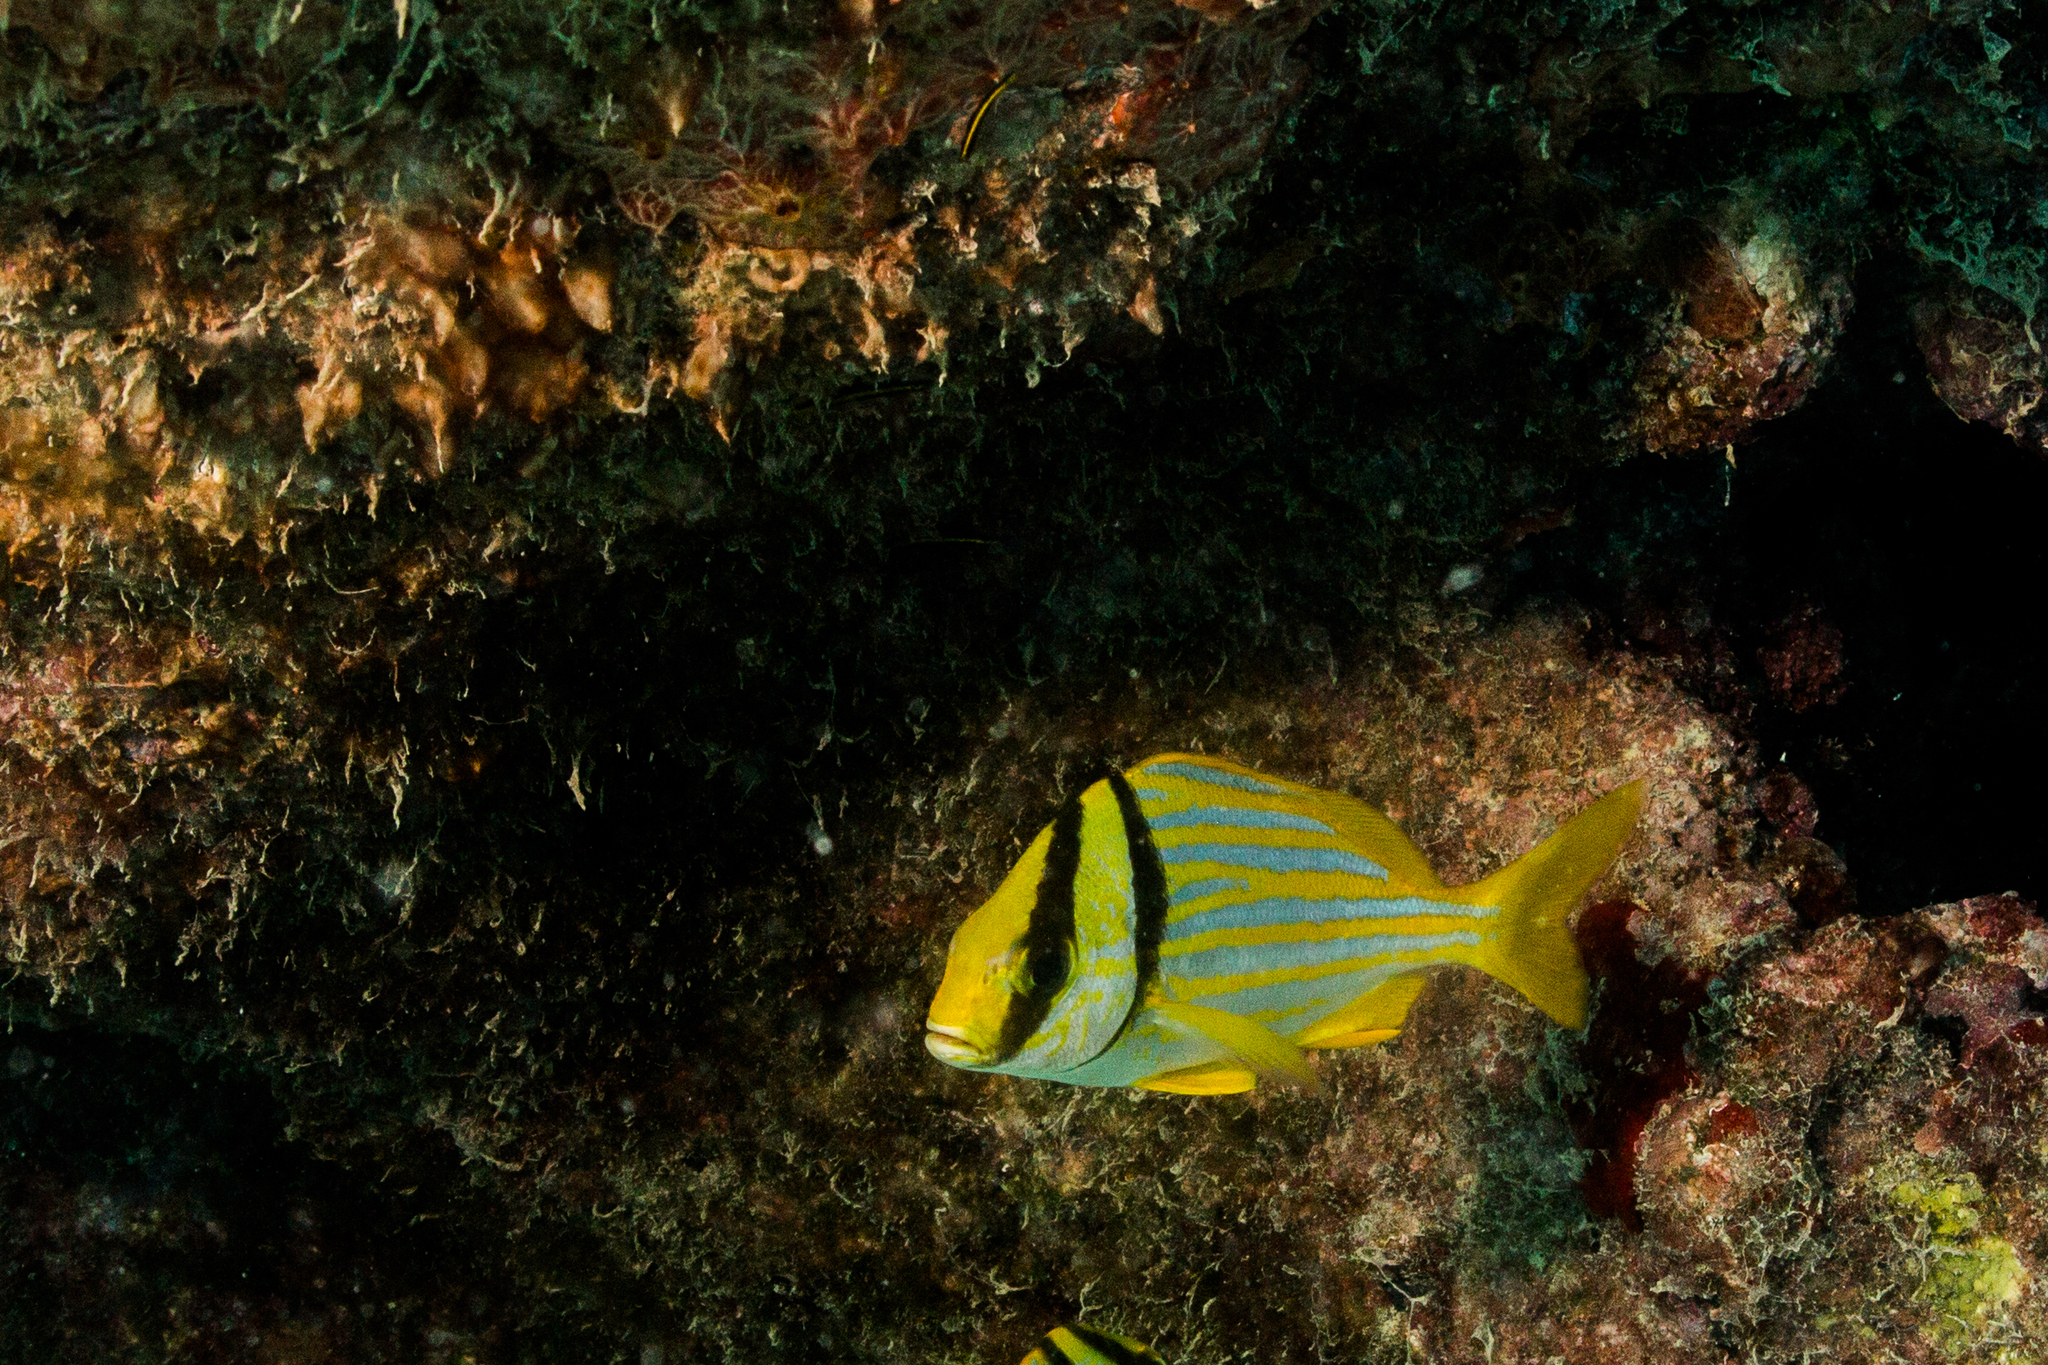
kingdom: Animalia
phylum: Chordata
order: Perciformes
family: Haemulidae
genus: Anisotremus
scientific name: Anisotremus virginicus
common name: Porkfish
